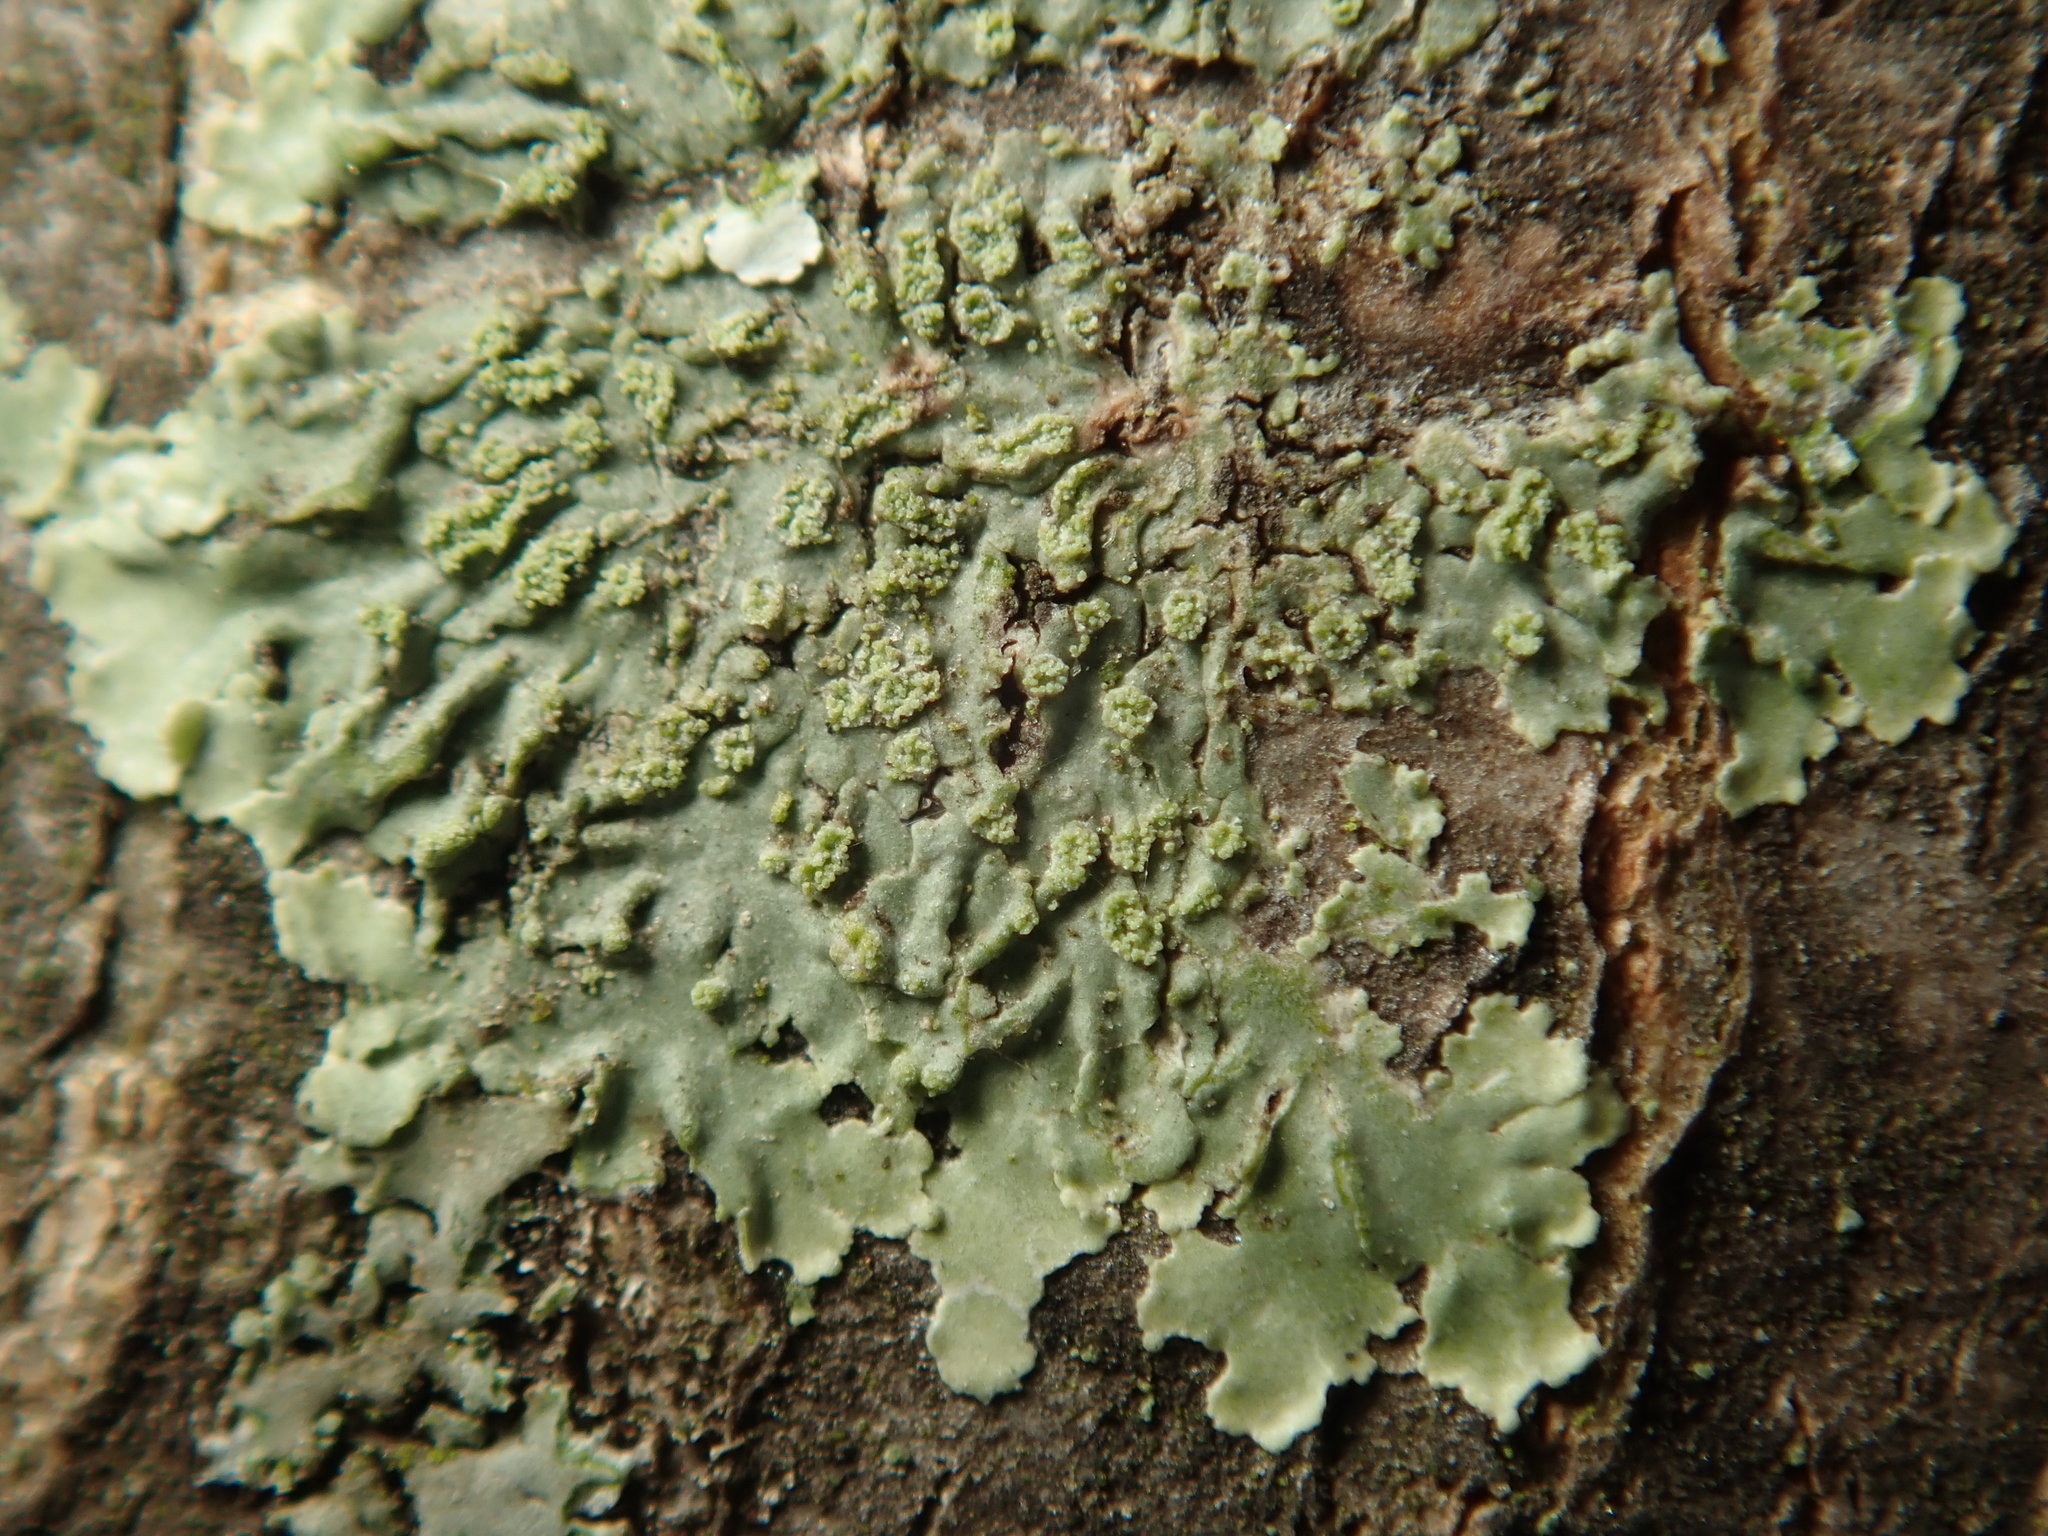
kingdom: Fungi
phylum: Ascomycota
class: Lecanoromycetes
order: Caliciales
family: Physciaceae
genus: Hyperphyscia
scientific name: Hyperphyscia adglutinata
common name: Grainy shadow-crust lichen
